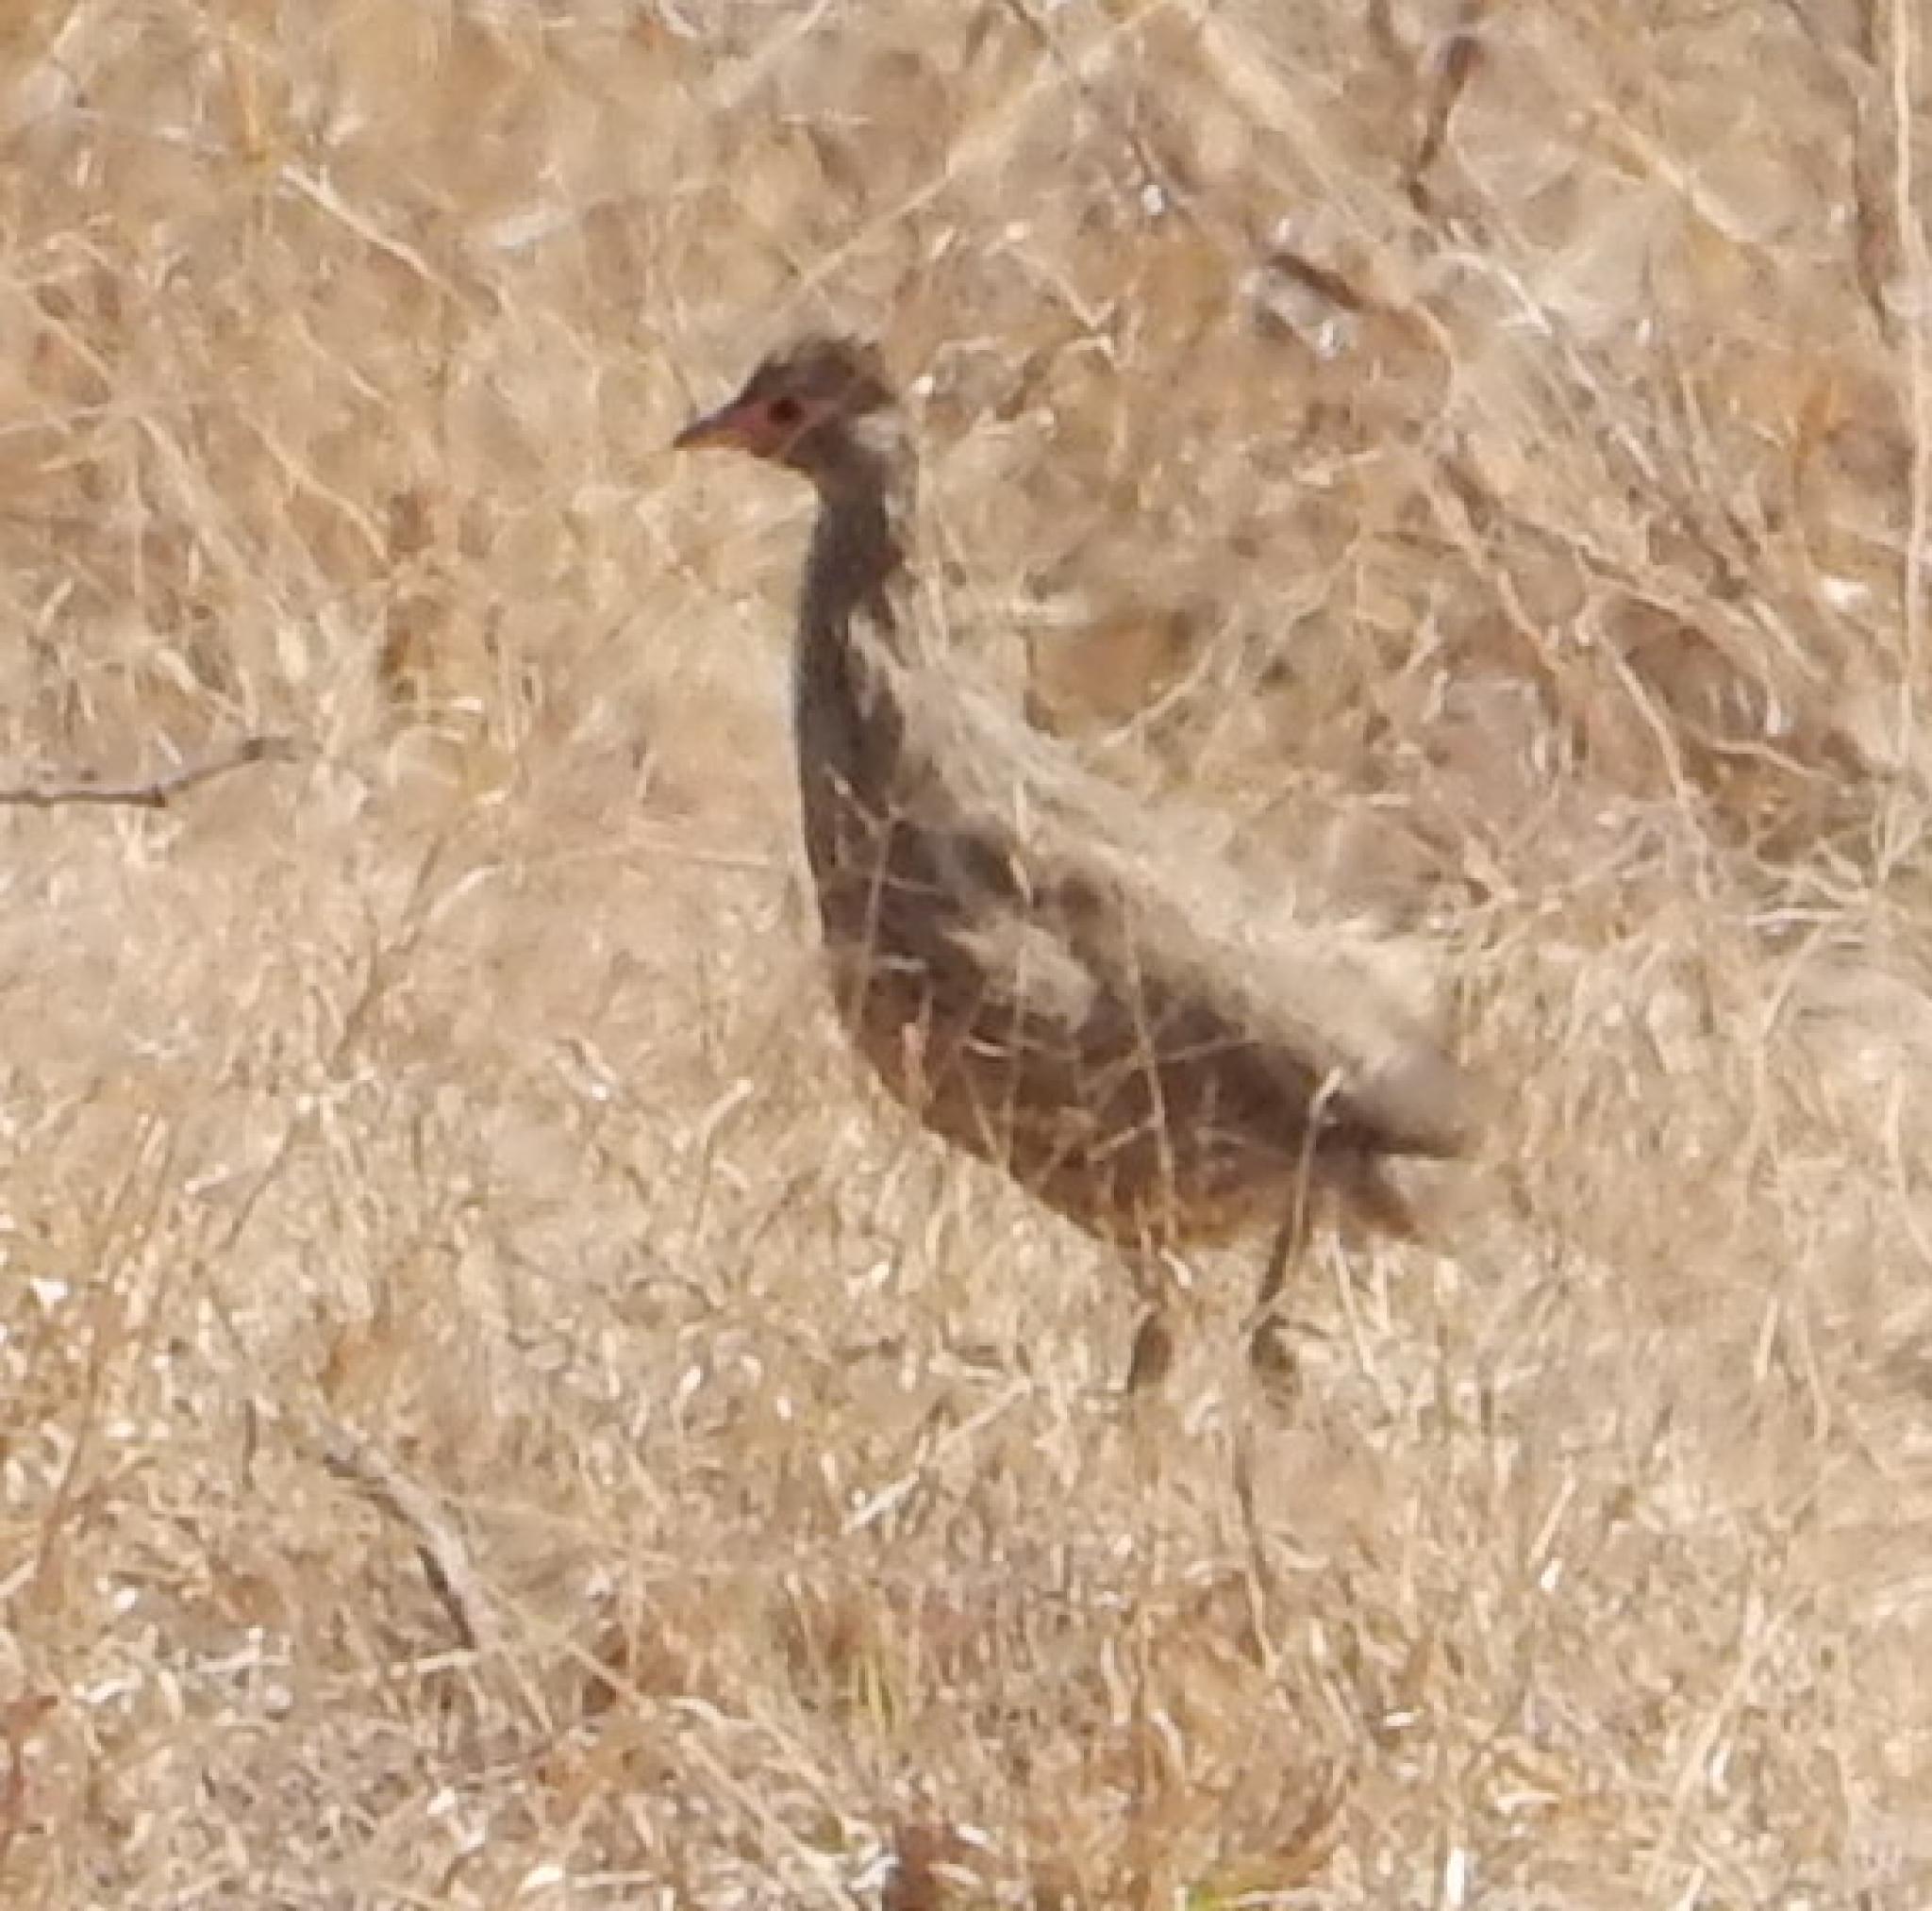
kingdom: Animalia
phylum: Chordata
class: Aves
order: Galliformes
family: Phasianidae
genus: Pternistis
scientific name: Pternistis swainsonii
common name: Swainson's spurfowl
